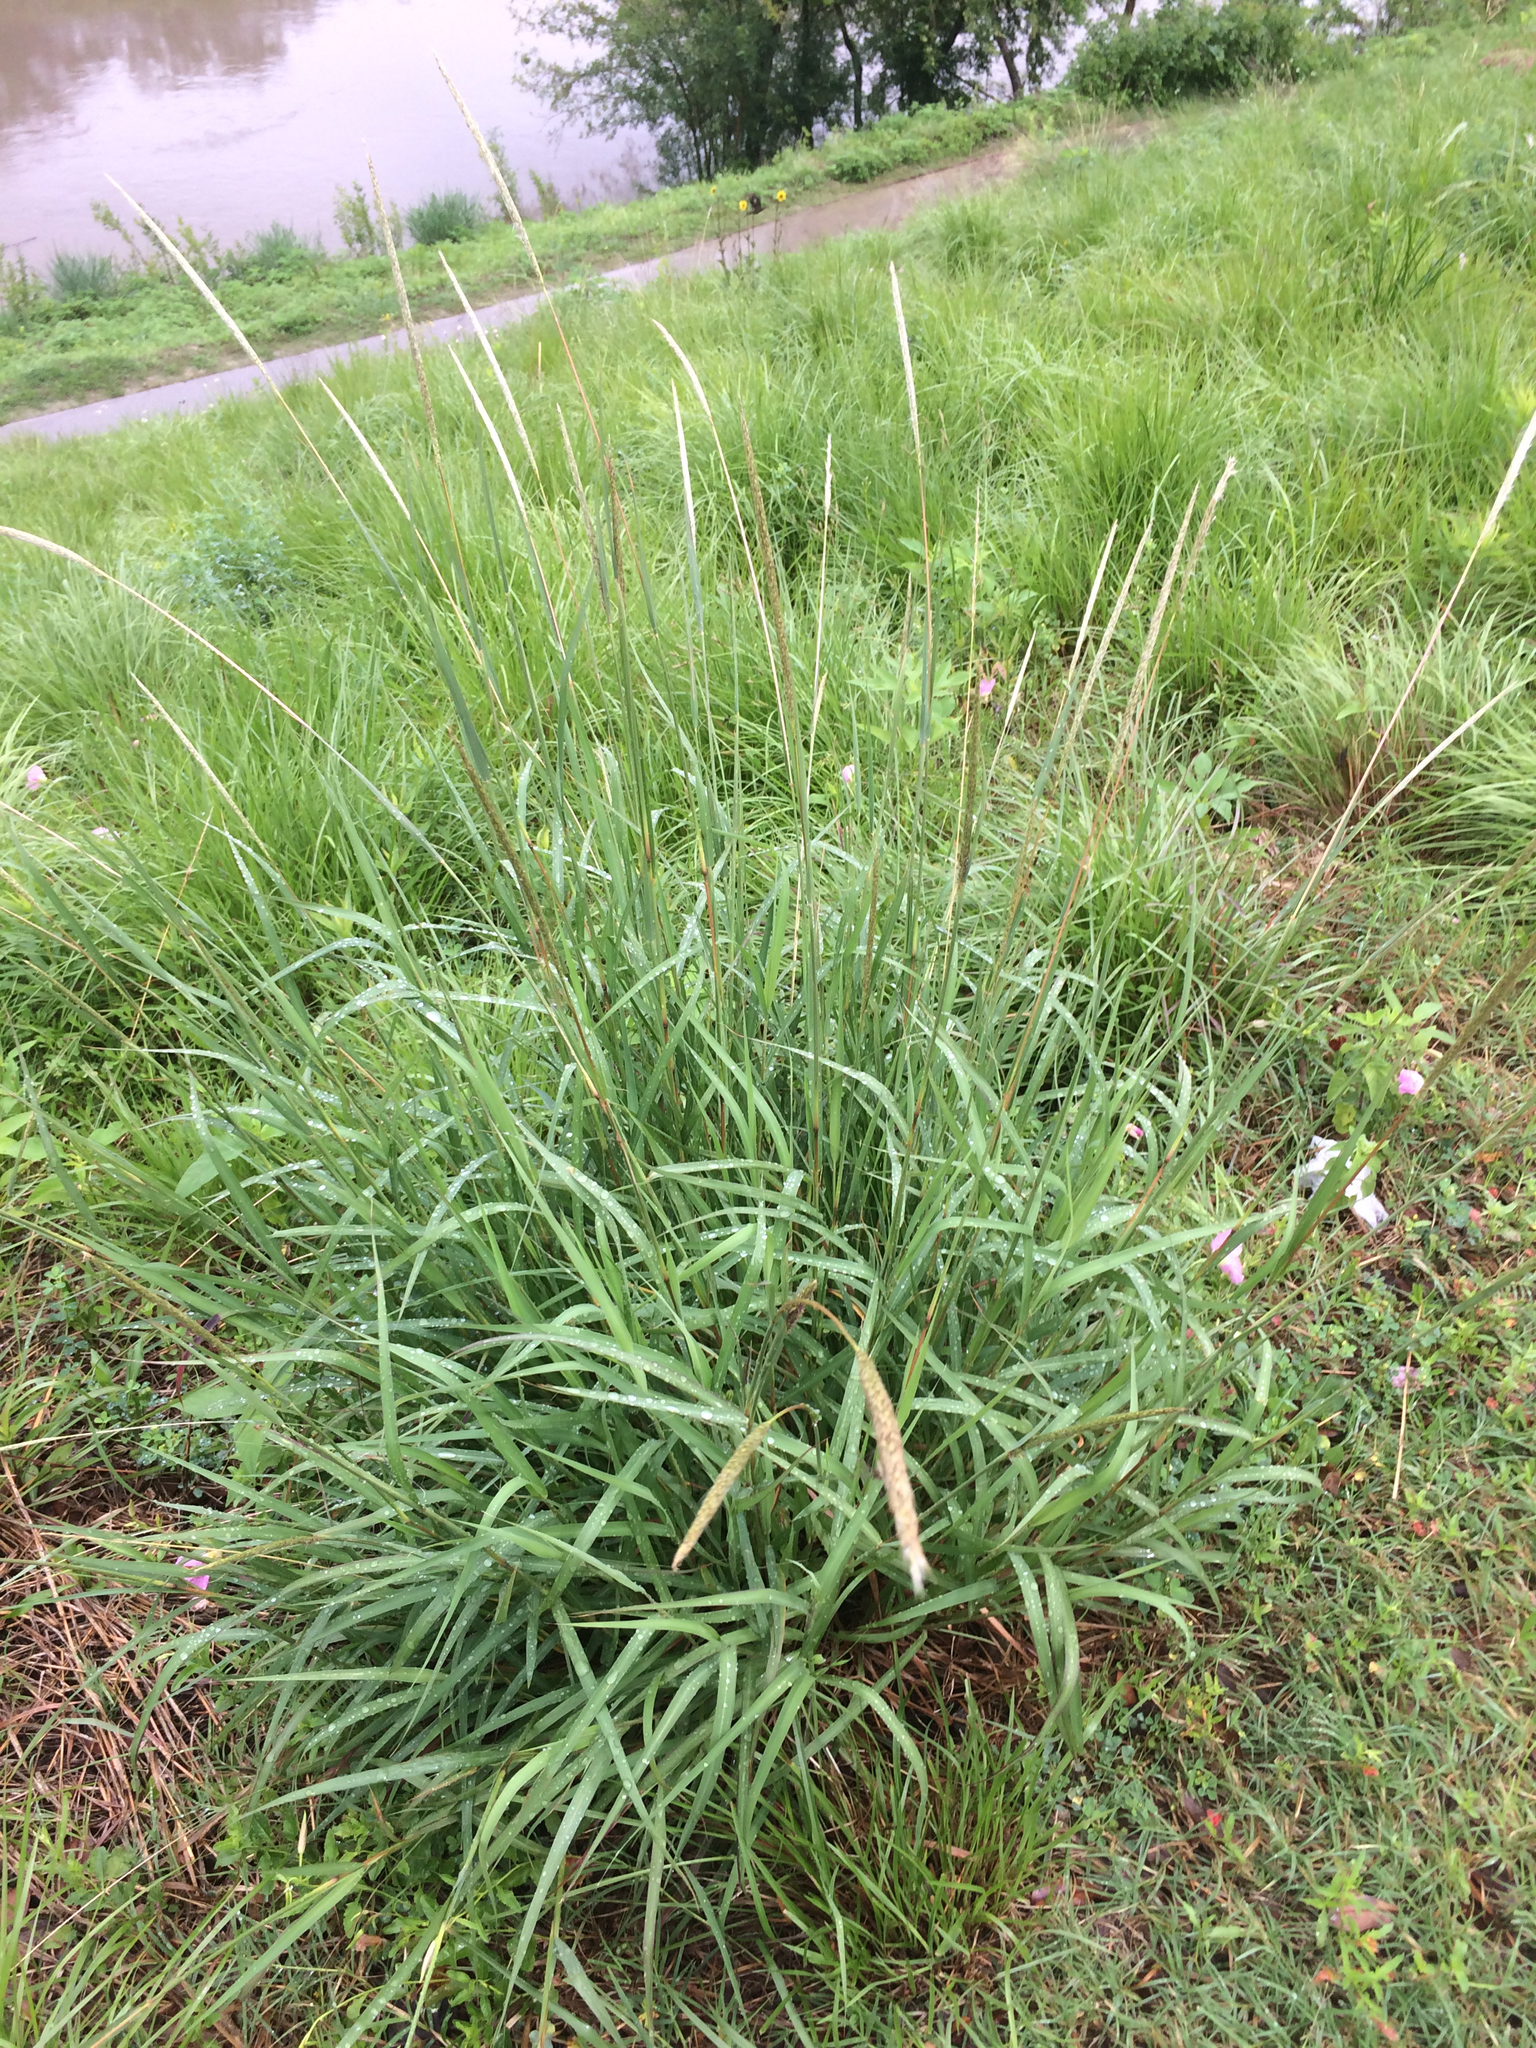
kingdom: Plantae
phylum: Tracheophyta
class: Liliopsida
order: Poales
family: Poaceae
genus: Bothriochloa
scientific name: Bothriochloa torreyana
